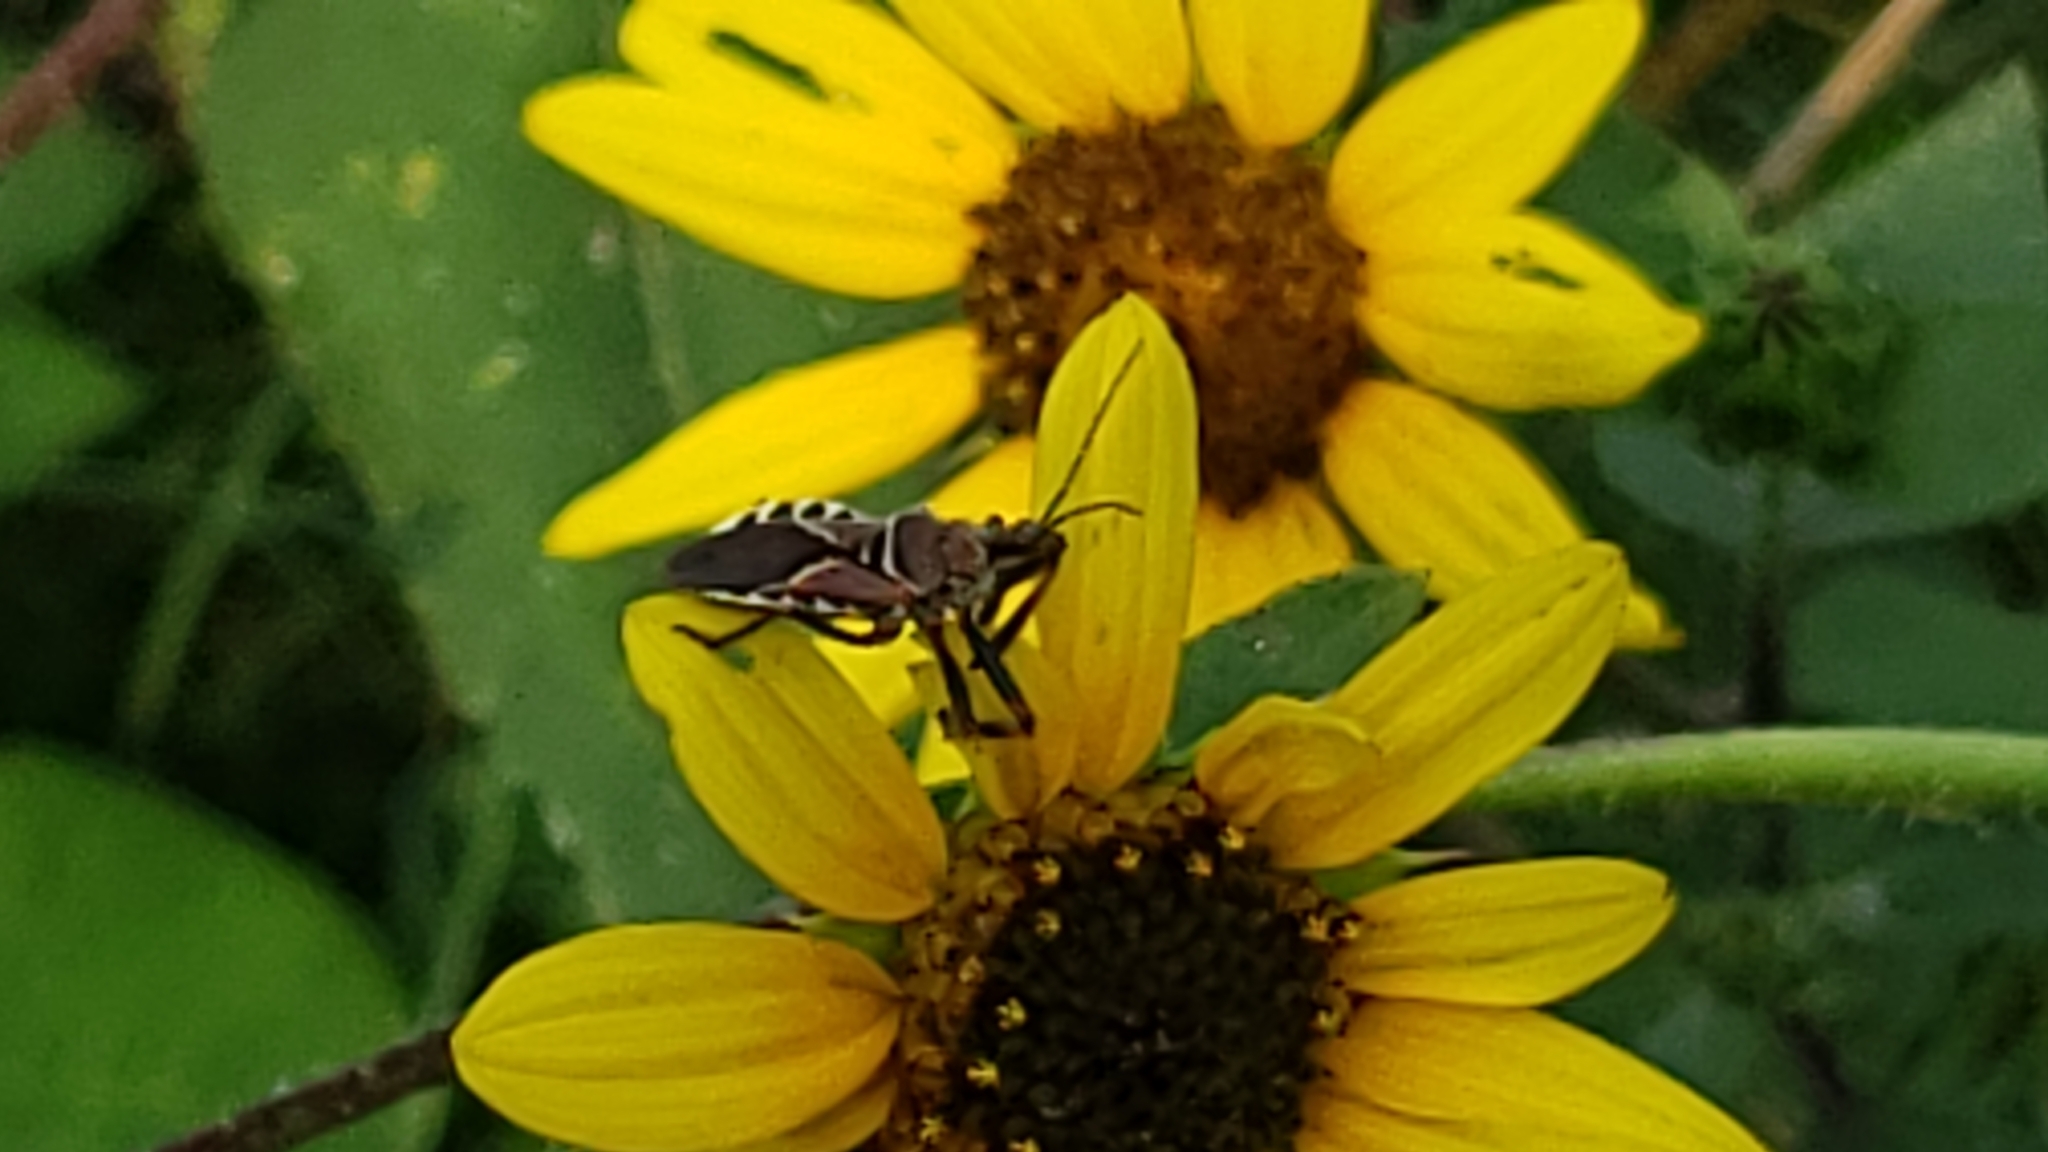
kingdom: Animalia
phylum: Arthropoda
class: Insecta
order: Hemiptera
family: Reduviidae
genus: Apiomerus
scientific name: Apiomerus spissipes
